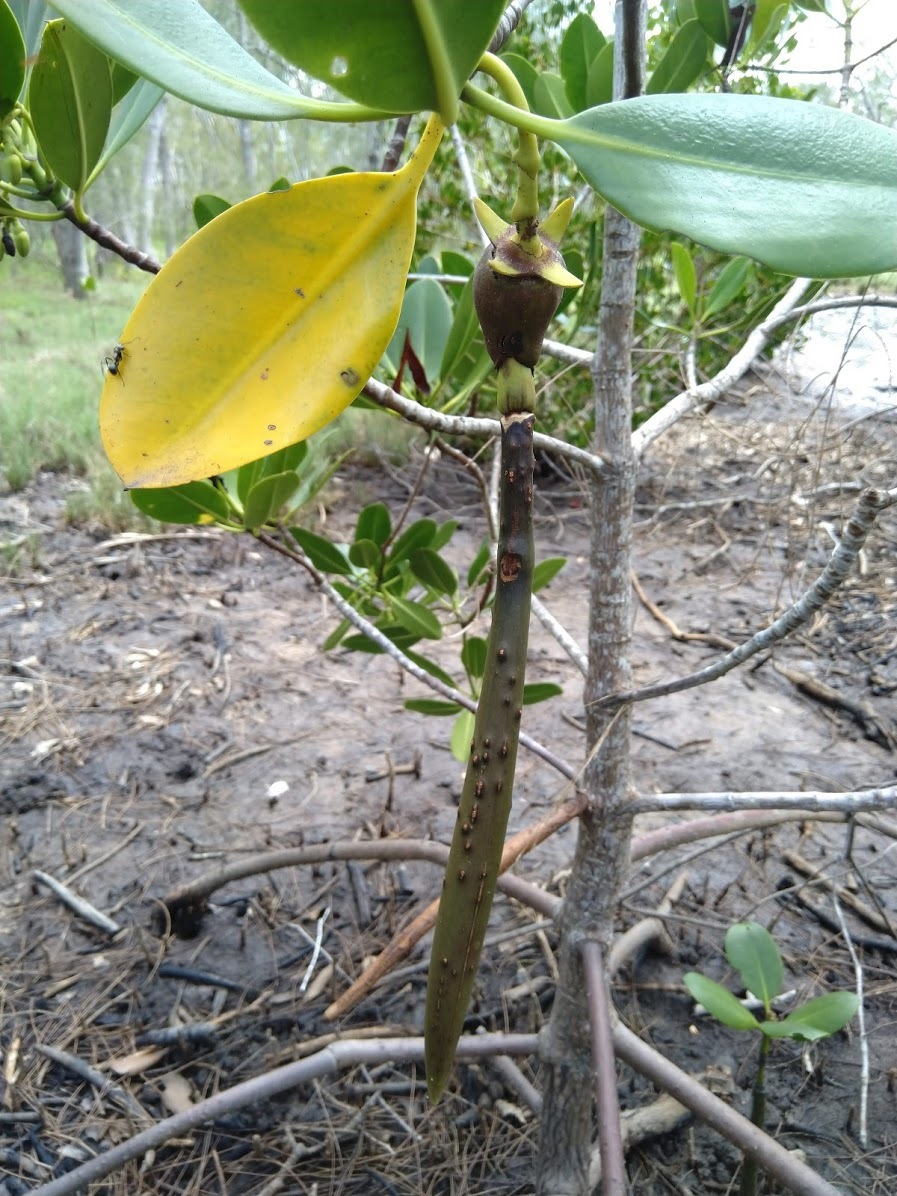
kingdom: Plantae
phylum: Tracheophyta
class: Magnoliopsida
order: Malpighiales
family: Rhizophoraceae
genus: Rhizophora
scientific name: Rhizophora stylosa
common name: Red mangrove
